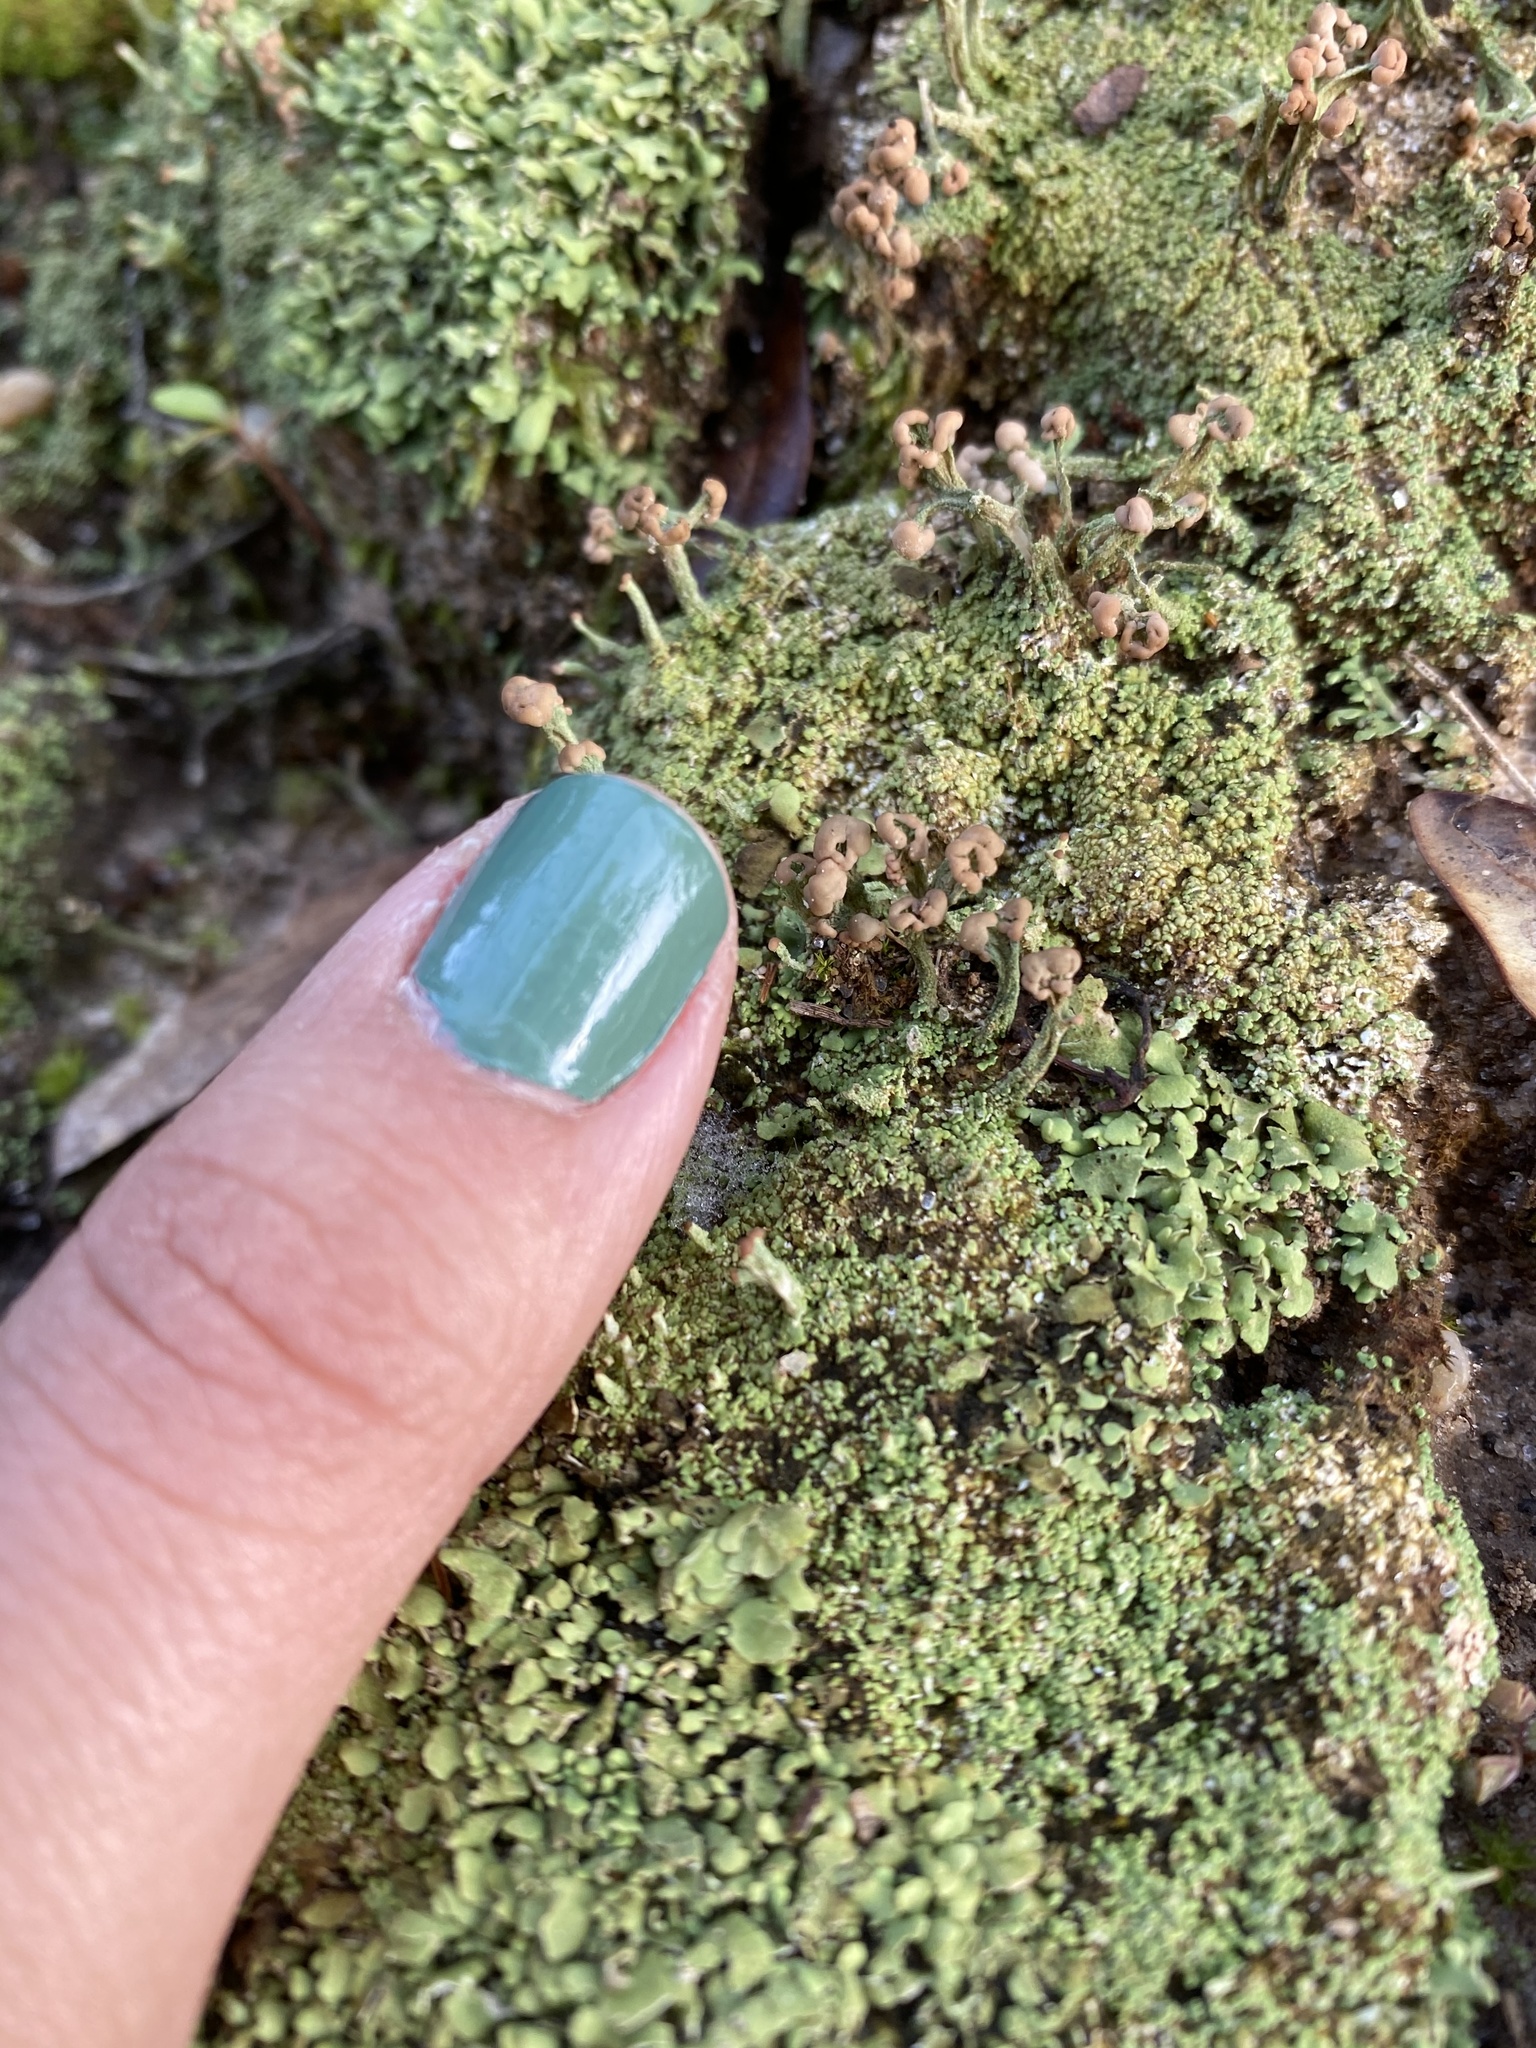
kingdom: Fungi
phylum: Ascomycota
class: Lecanoromycetes
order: Lecanorales
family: Cladoniaceae
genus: Cladonia
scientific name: Cladonia peziziformis
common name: Cup lichen
